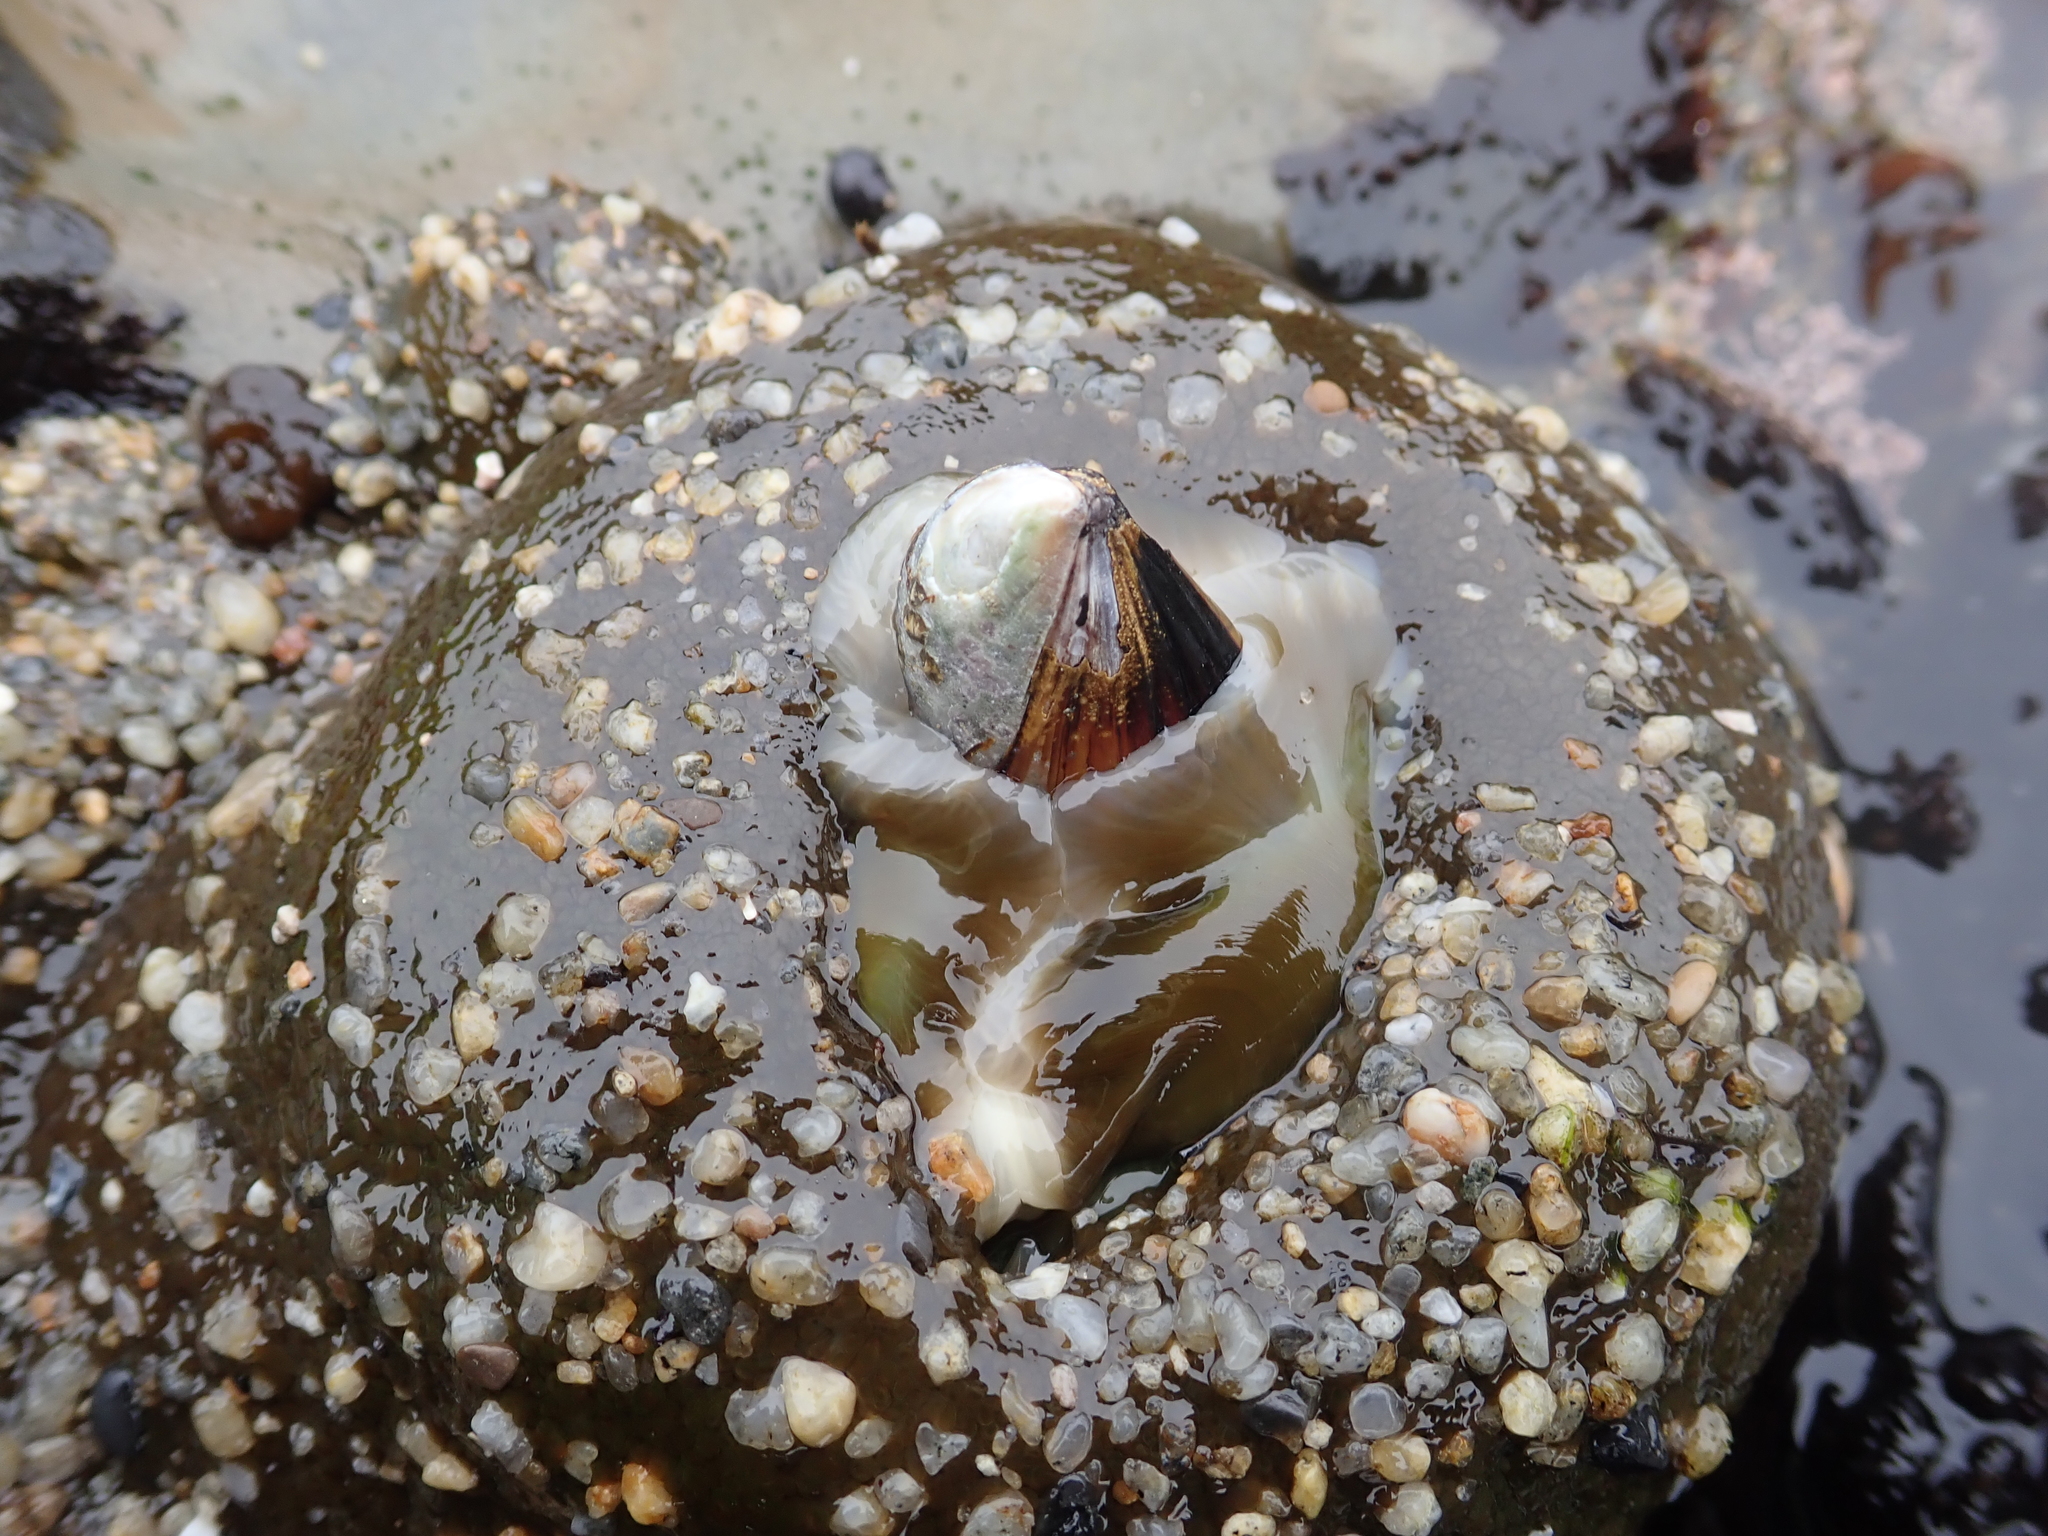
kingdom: Animalia
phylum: Cnidaria
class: Anthozoa
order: Actiniaria
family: Actiniidae
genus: Anthopleura
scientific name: Anthopleura xanthogrammica
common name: Giant green anemone
